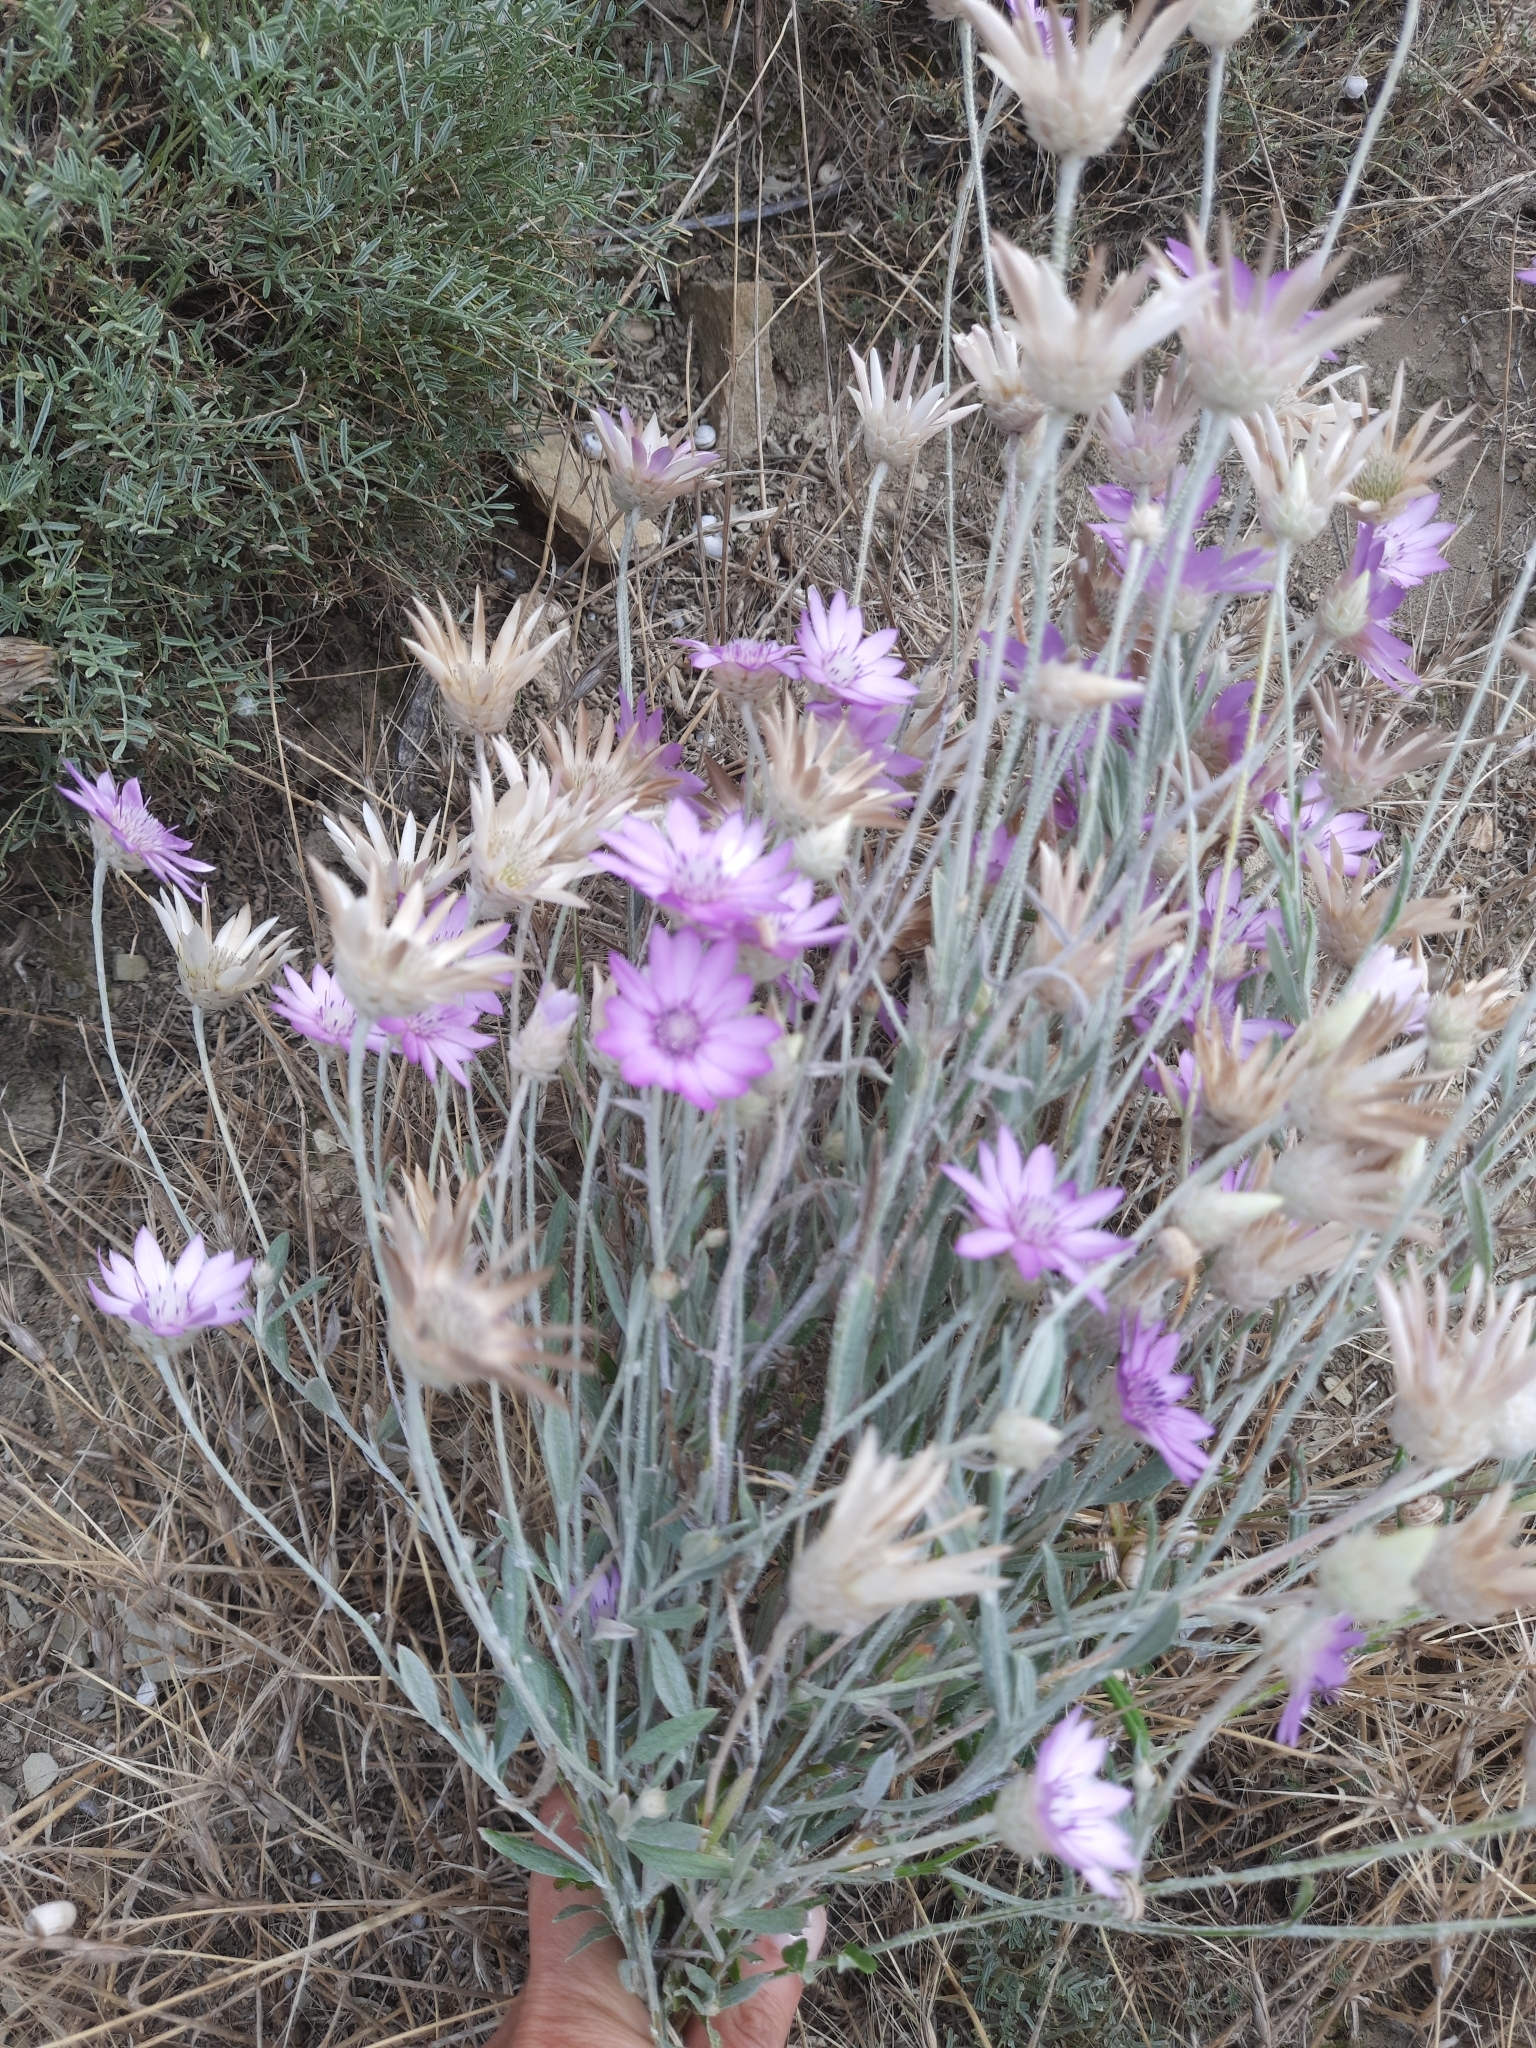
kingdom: Plantae
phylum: Tracheophyta
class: Magnoliopsida
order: Asterales
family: Asteraceae
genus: Xeranthemum
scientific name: Xeranthemum annuum
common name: Immortelle
